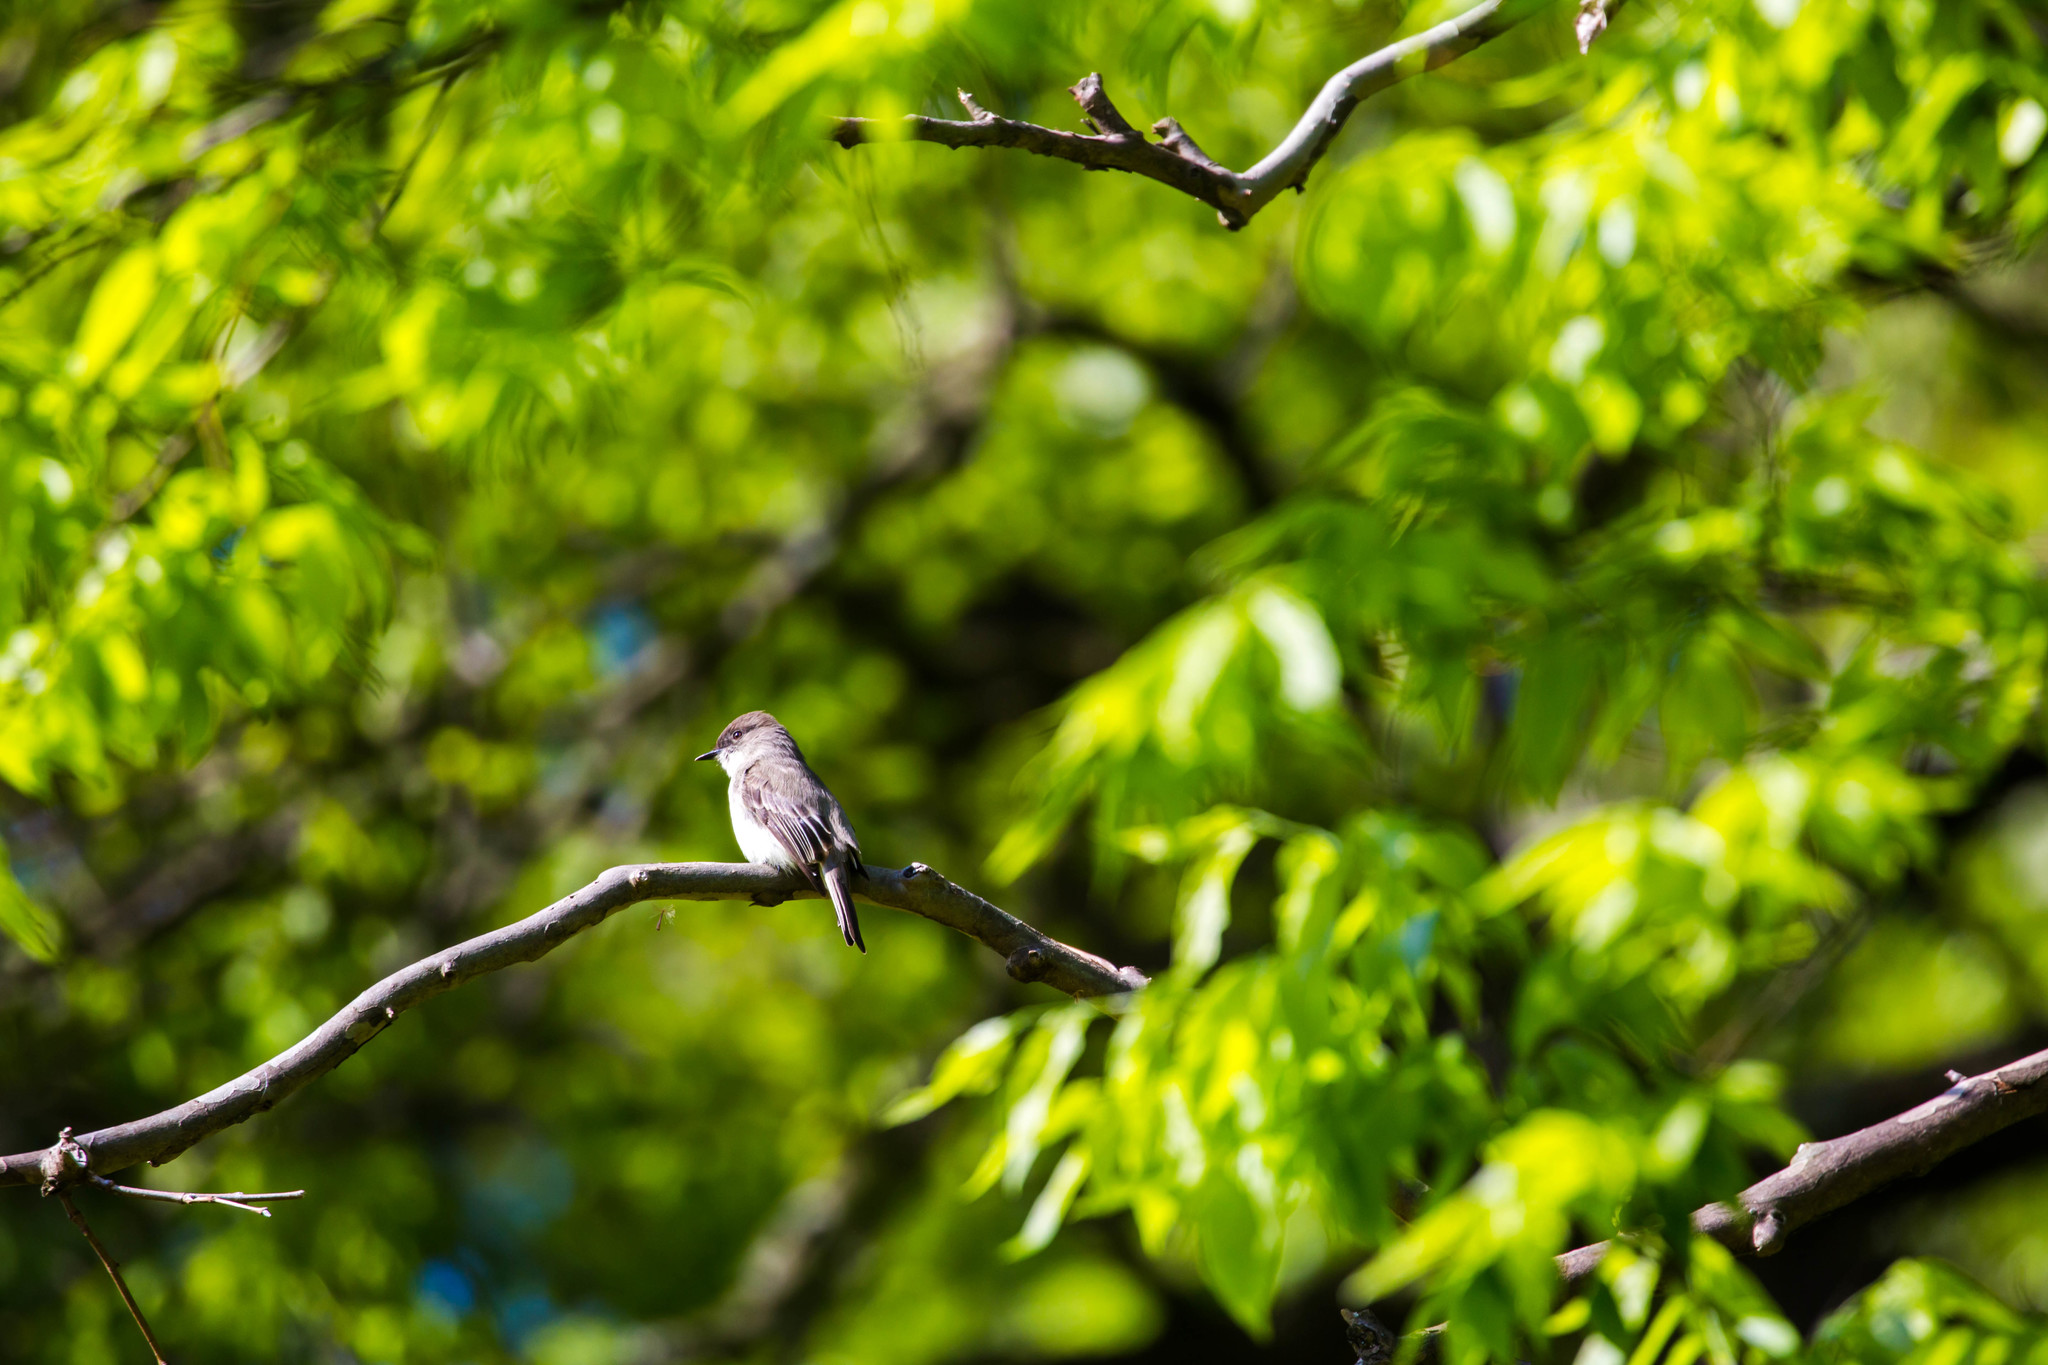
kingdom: Animalia
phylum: Chordata
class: Aves
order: Passeriformes
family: Tyrannidae
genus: Sayornis
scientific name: Sayornis phoebe
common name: Eastern phoebe
